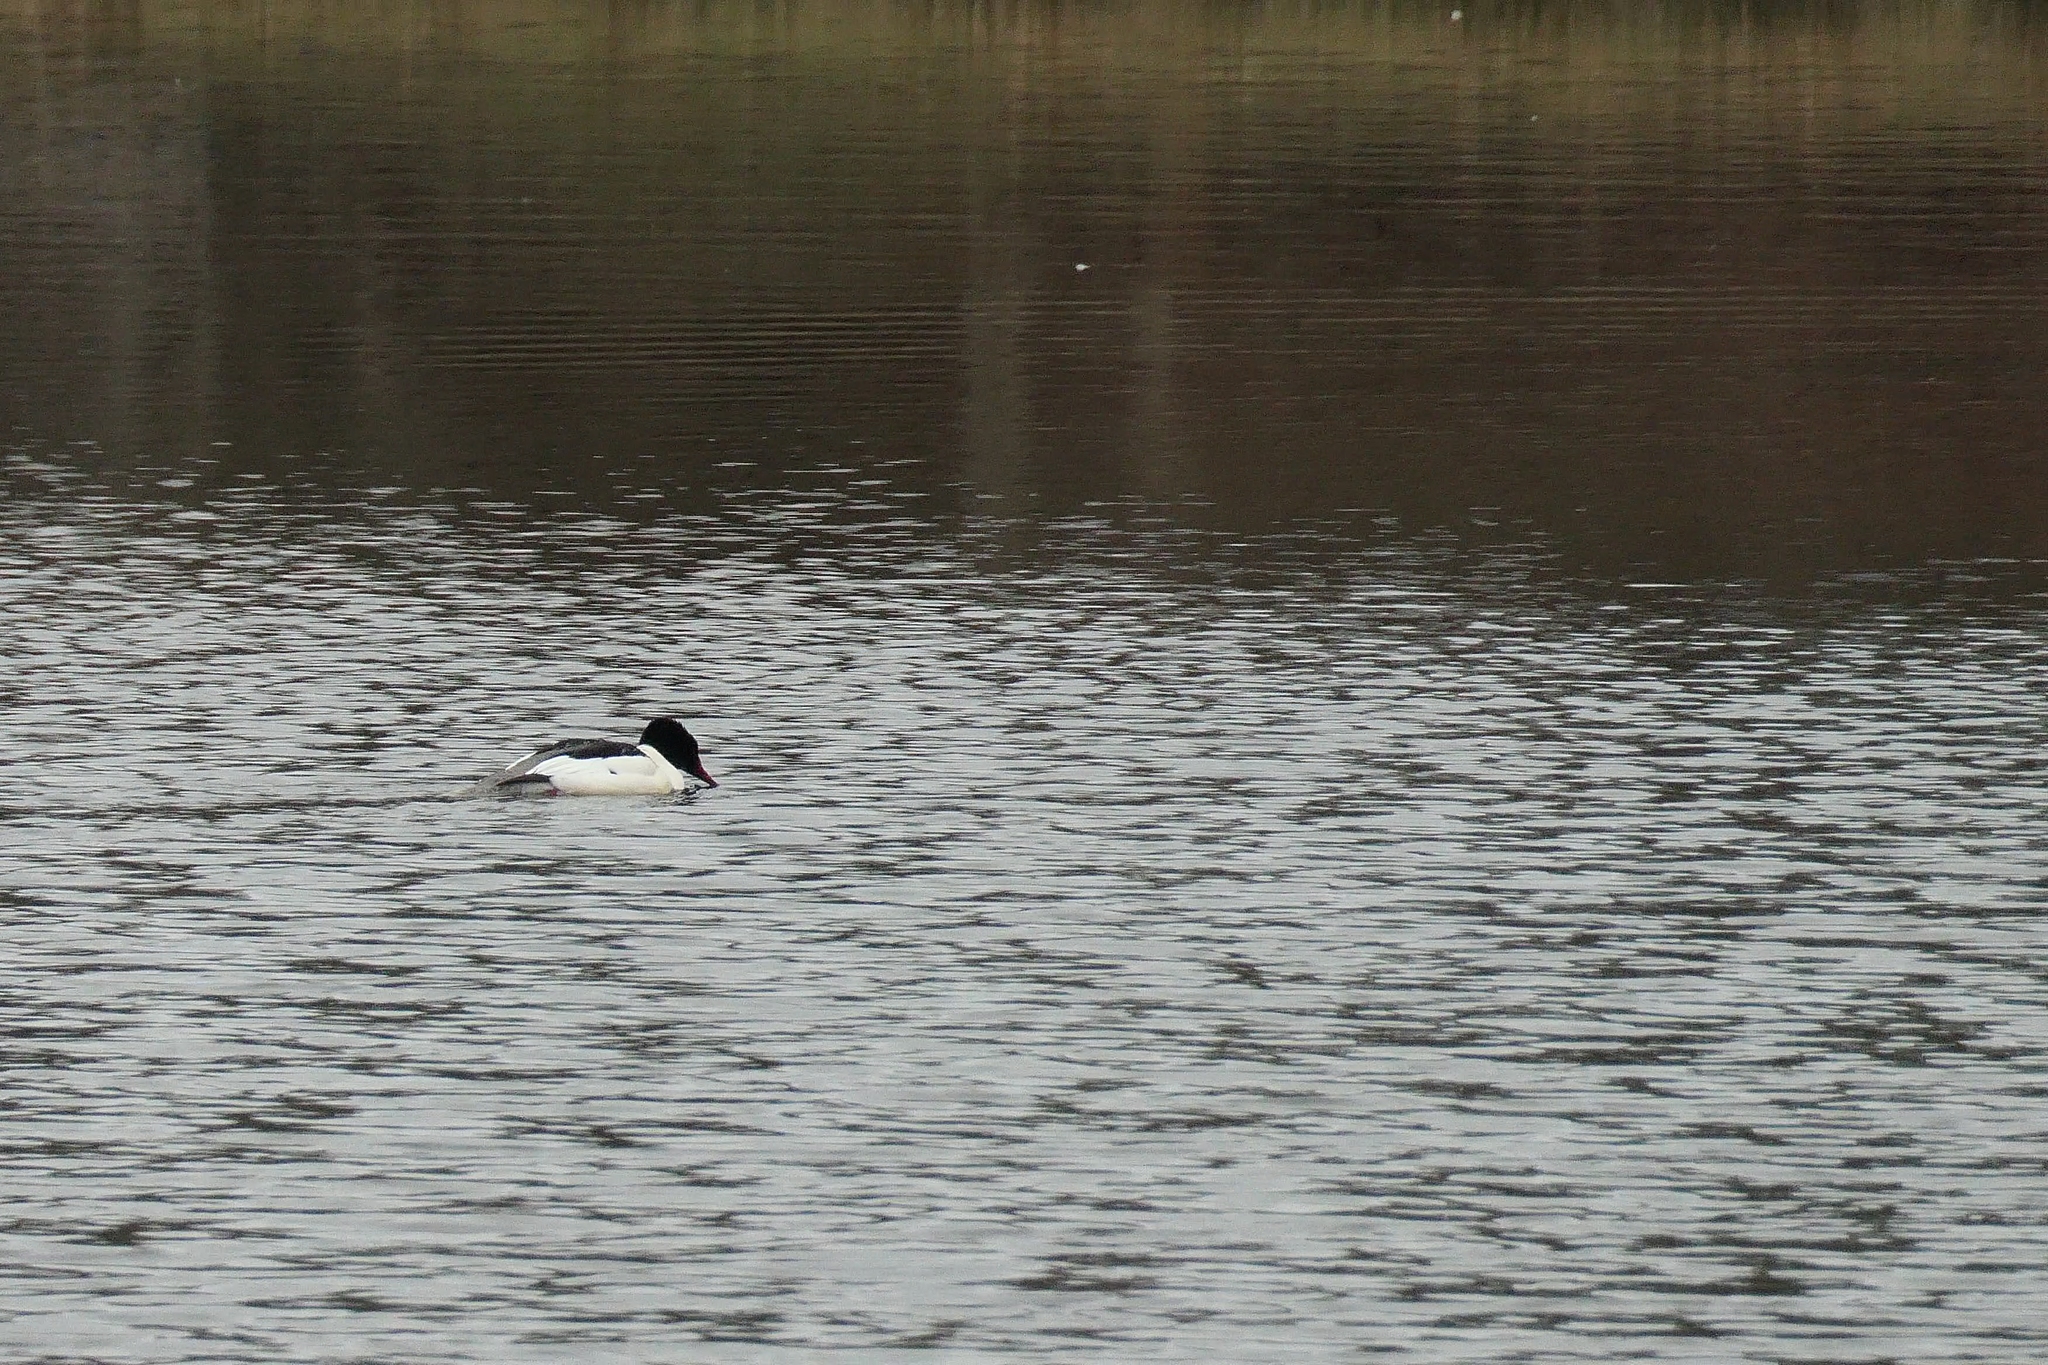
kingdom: Animalia
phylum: Chordata
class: Aves
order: Anseriformes
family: Anatidae
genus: Mergus
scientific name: Mergus merganser
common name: Common merganser
